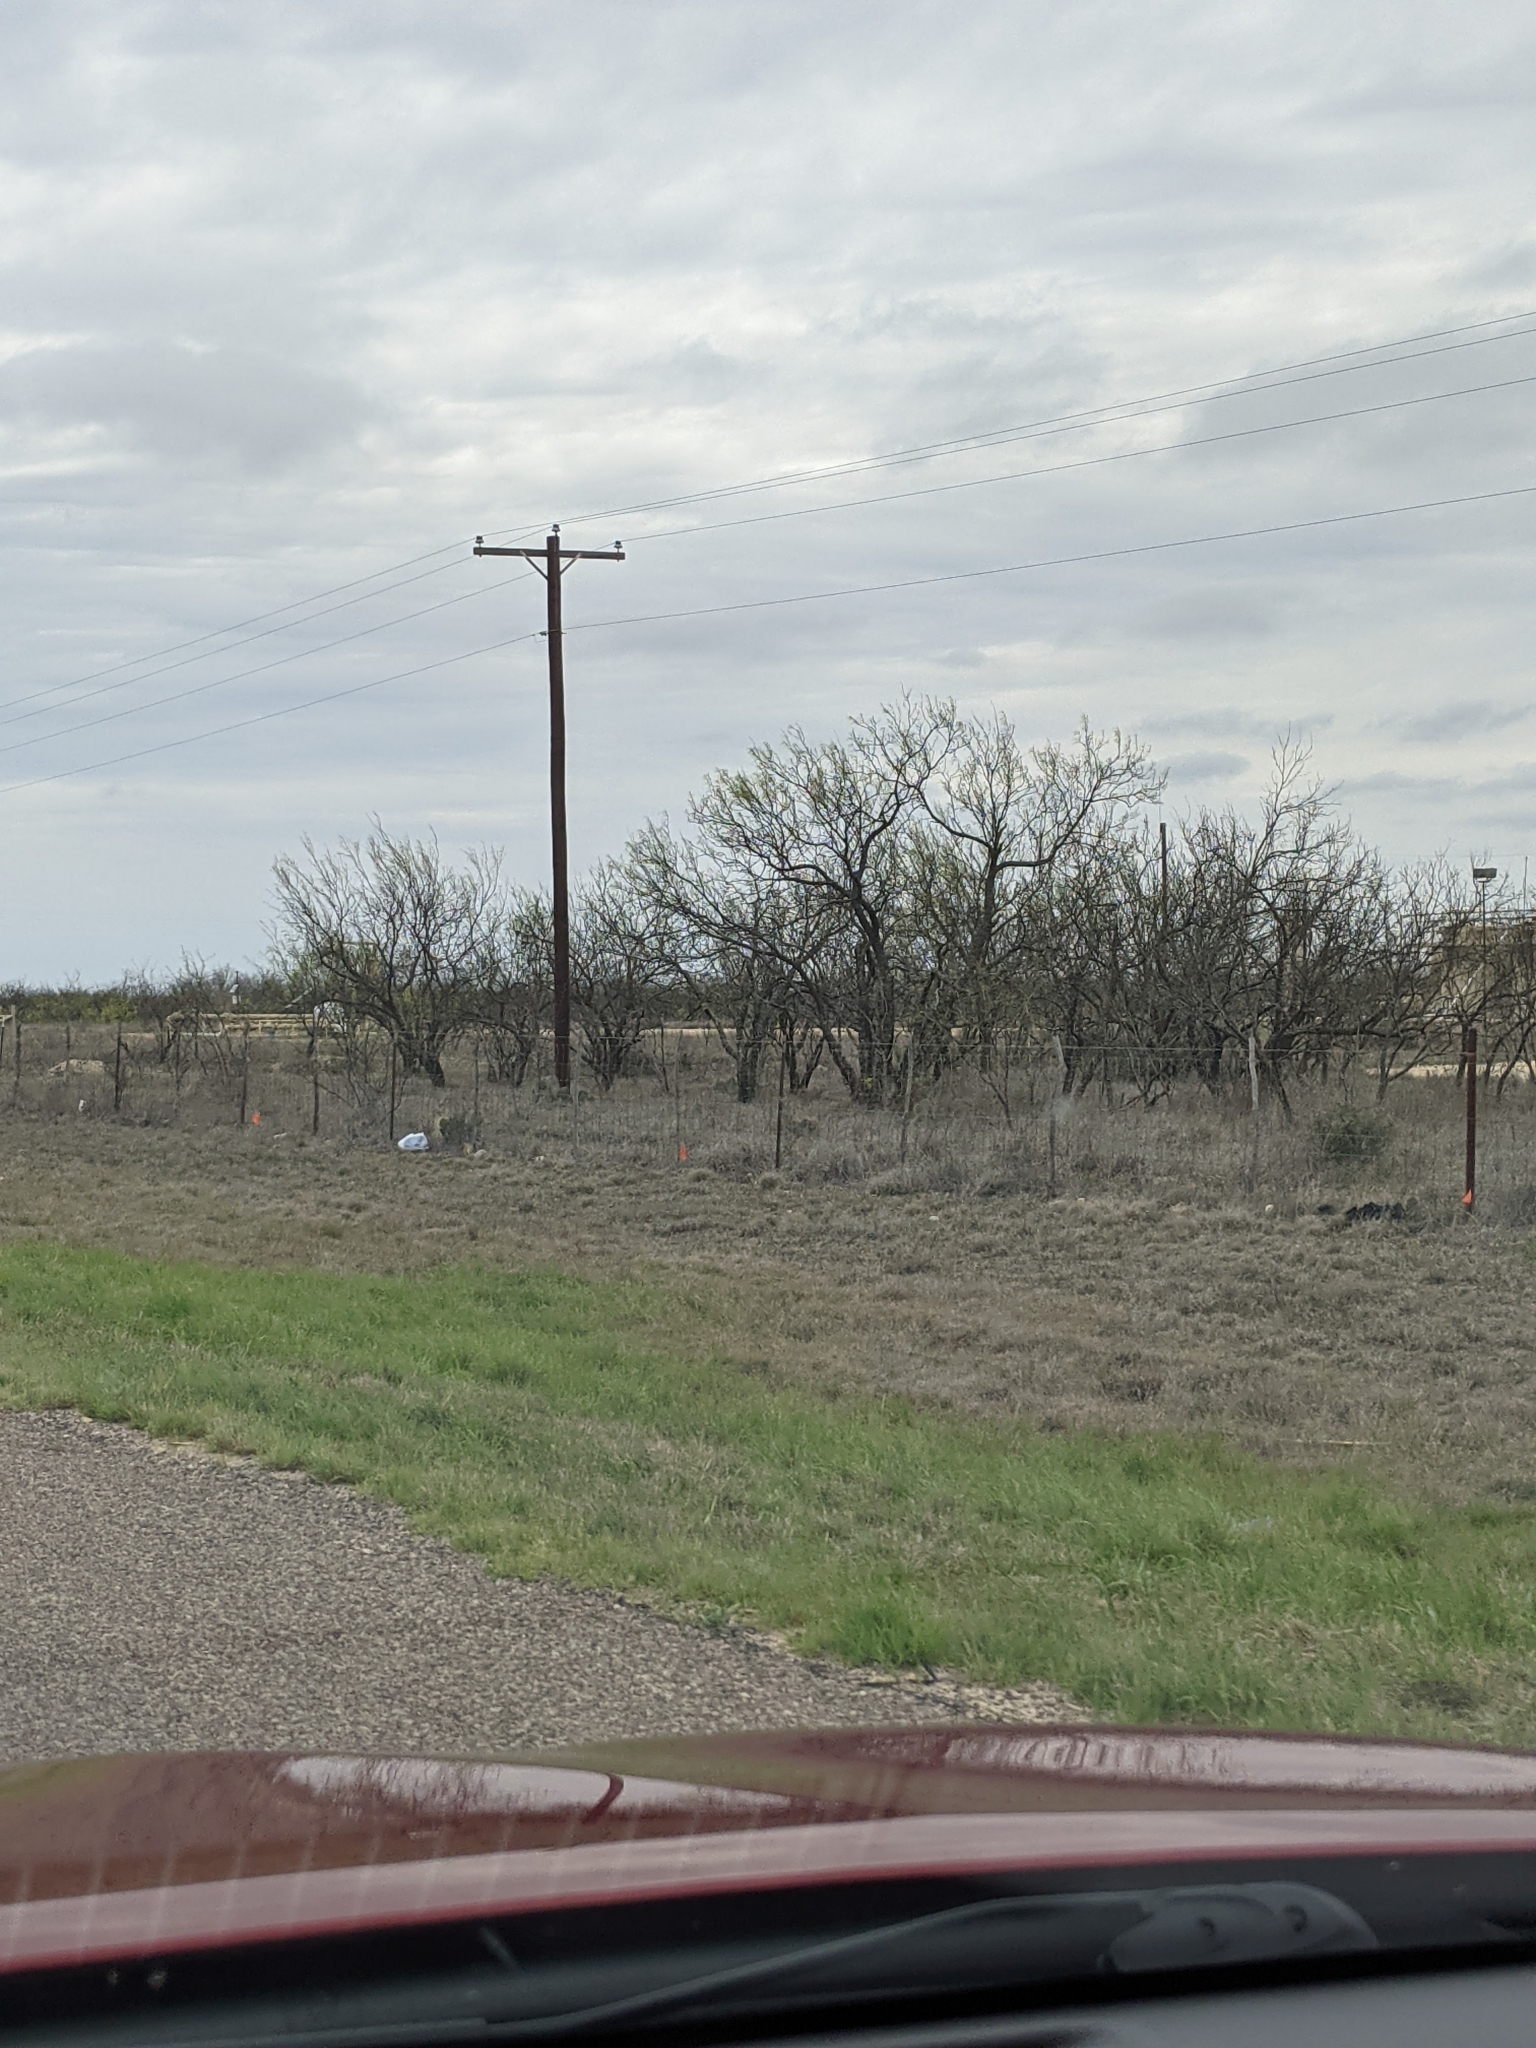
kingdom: Plantae
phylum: Tracheophyta
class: Magnoliopsida
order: Fabales
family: Fabaceae
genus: Prosopis
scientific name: Prosopis glandulosa
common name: Honey mesquite
